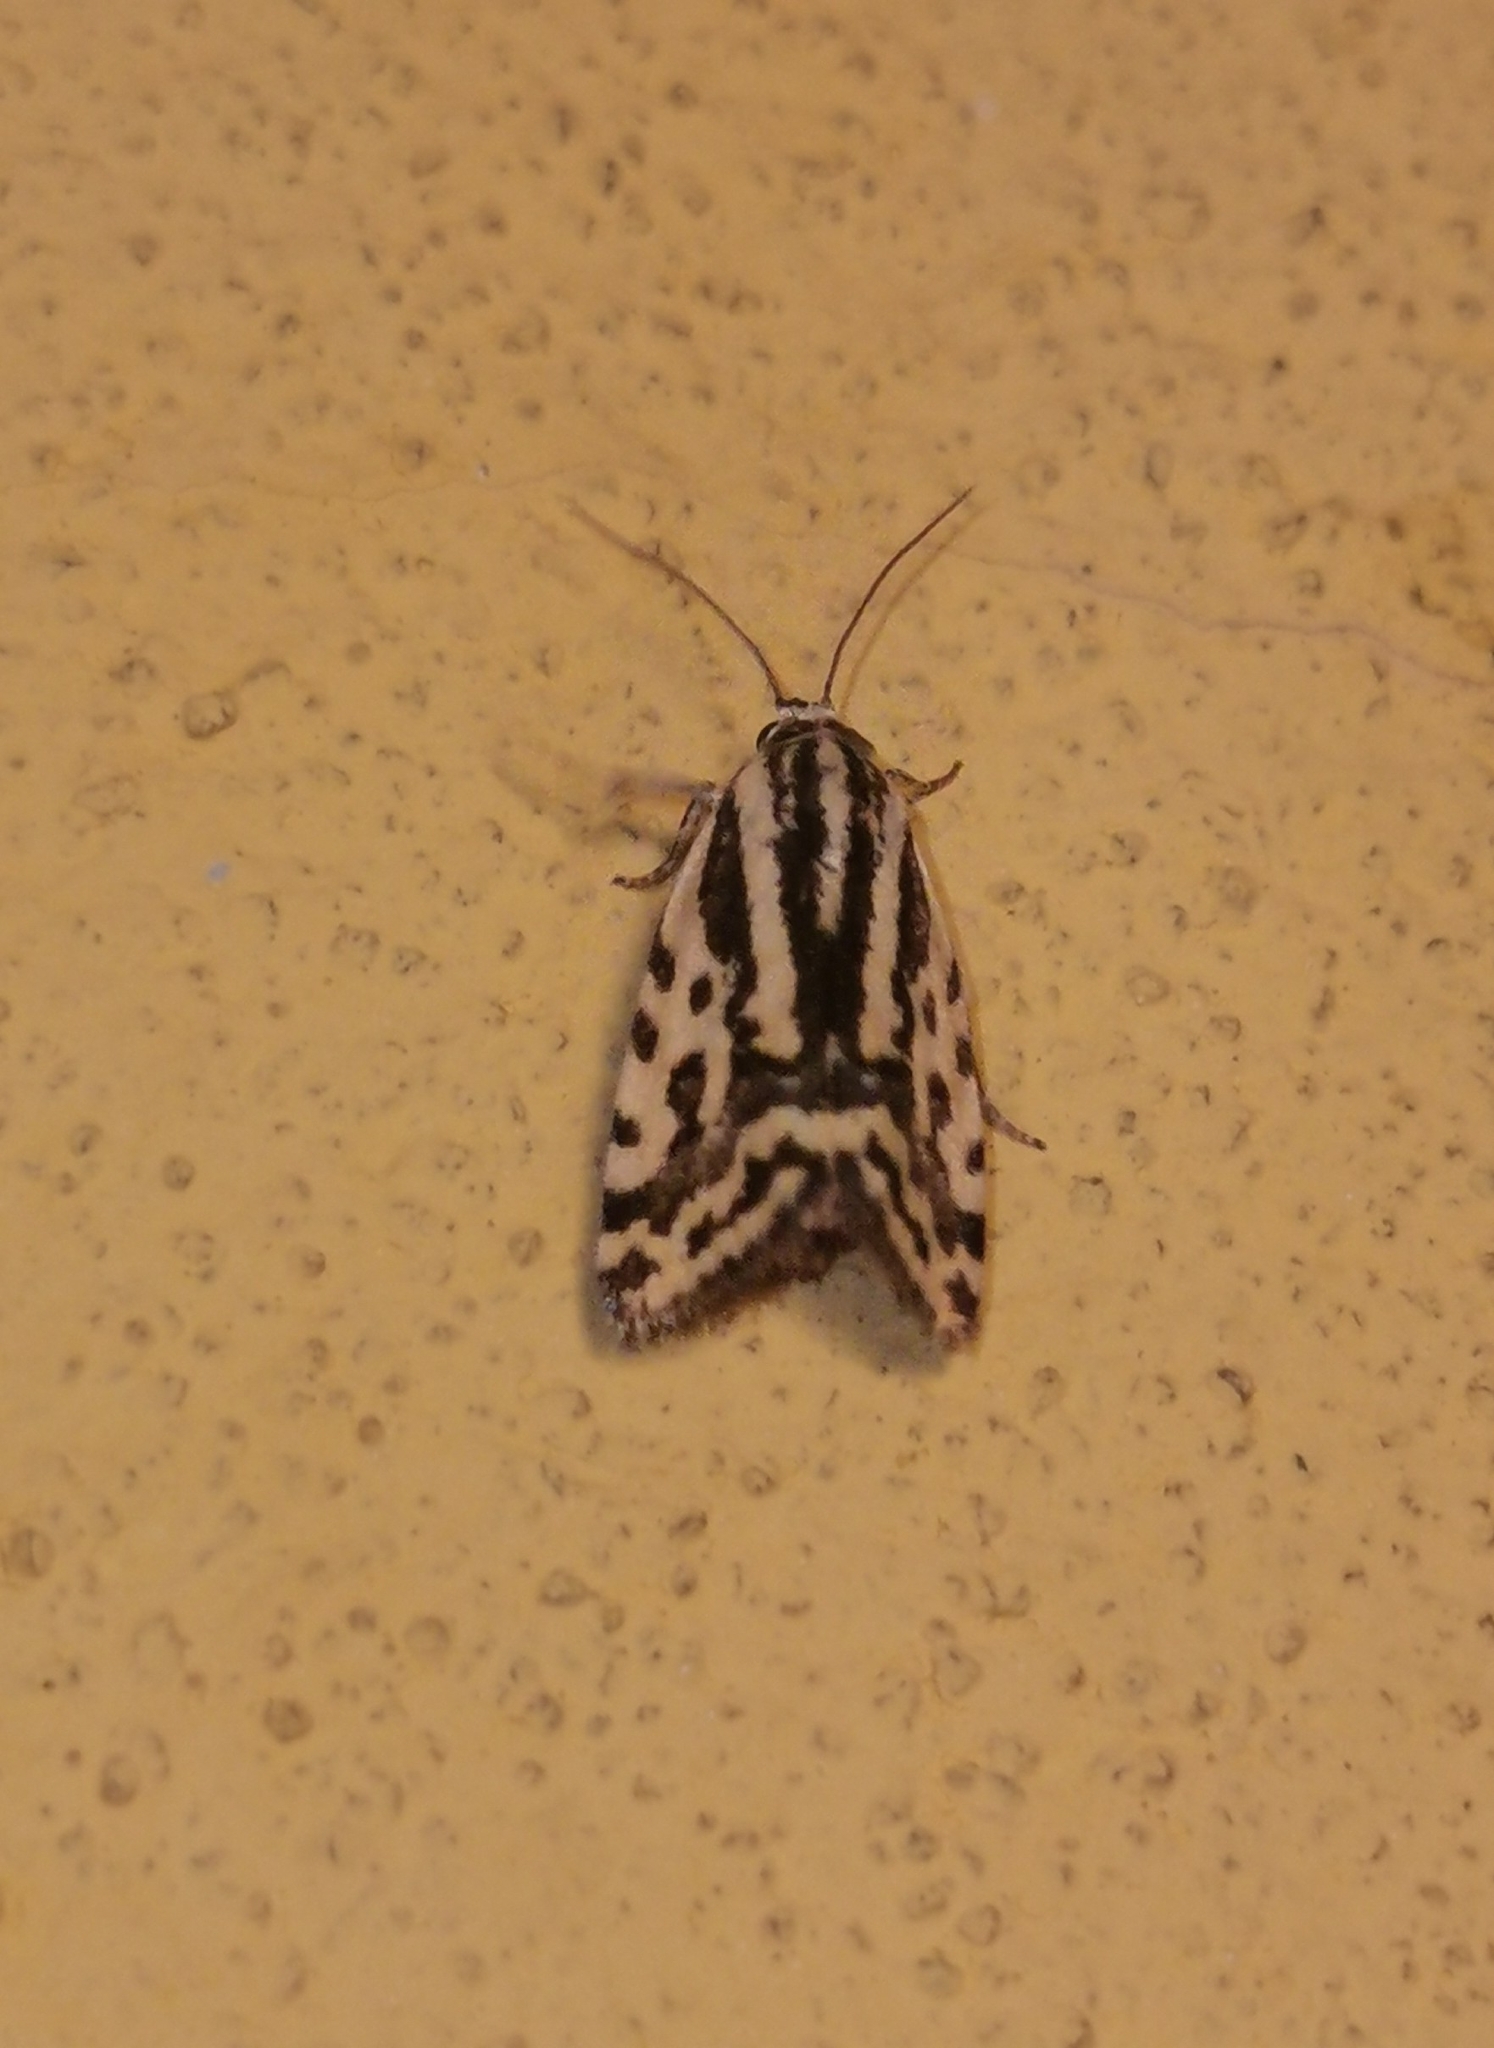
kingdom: Animalia
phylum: Arthropoda
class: Insecta
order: Lepidoptera
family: Noctuidae
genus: Acontia
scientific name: Acontia trabealis
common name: Spotted sulphur
